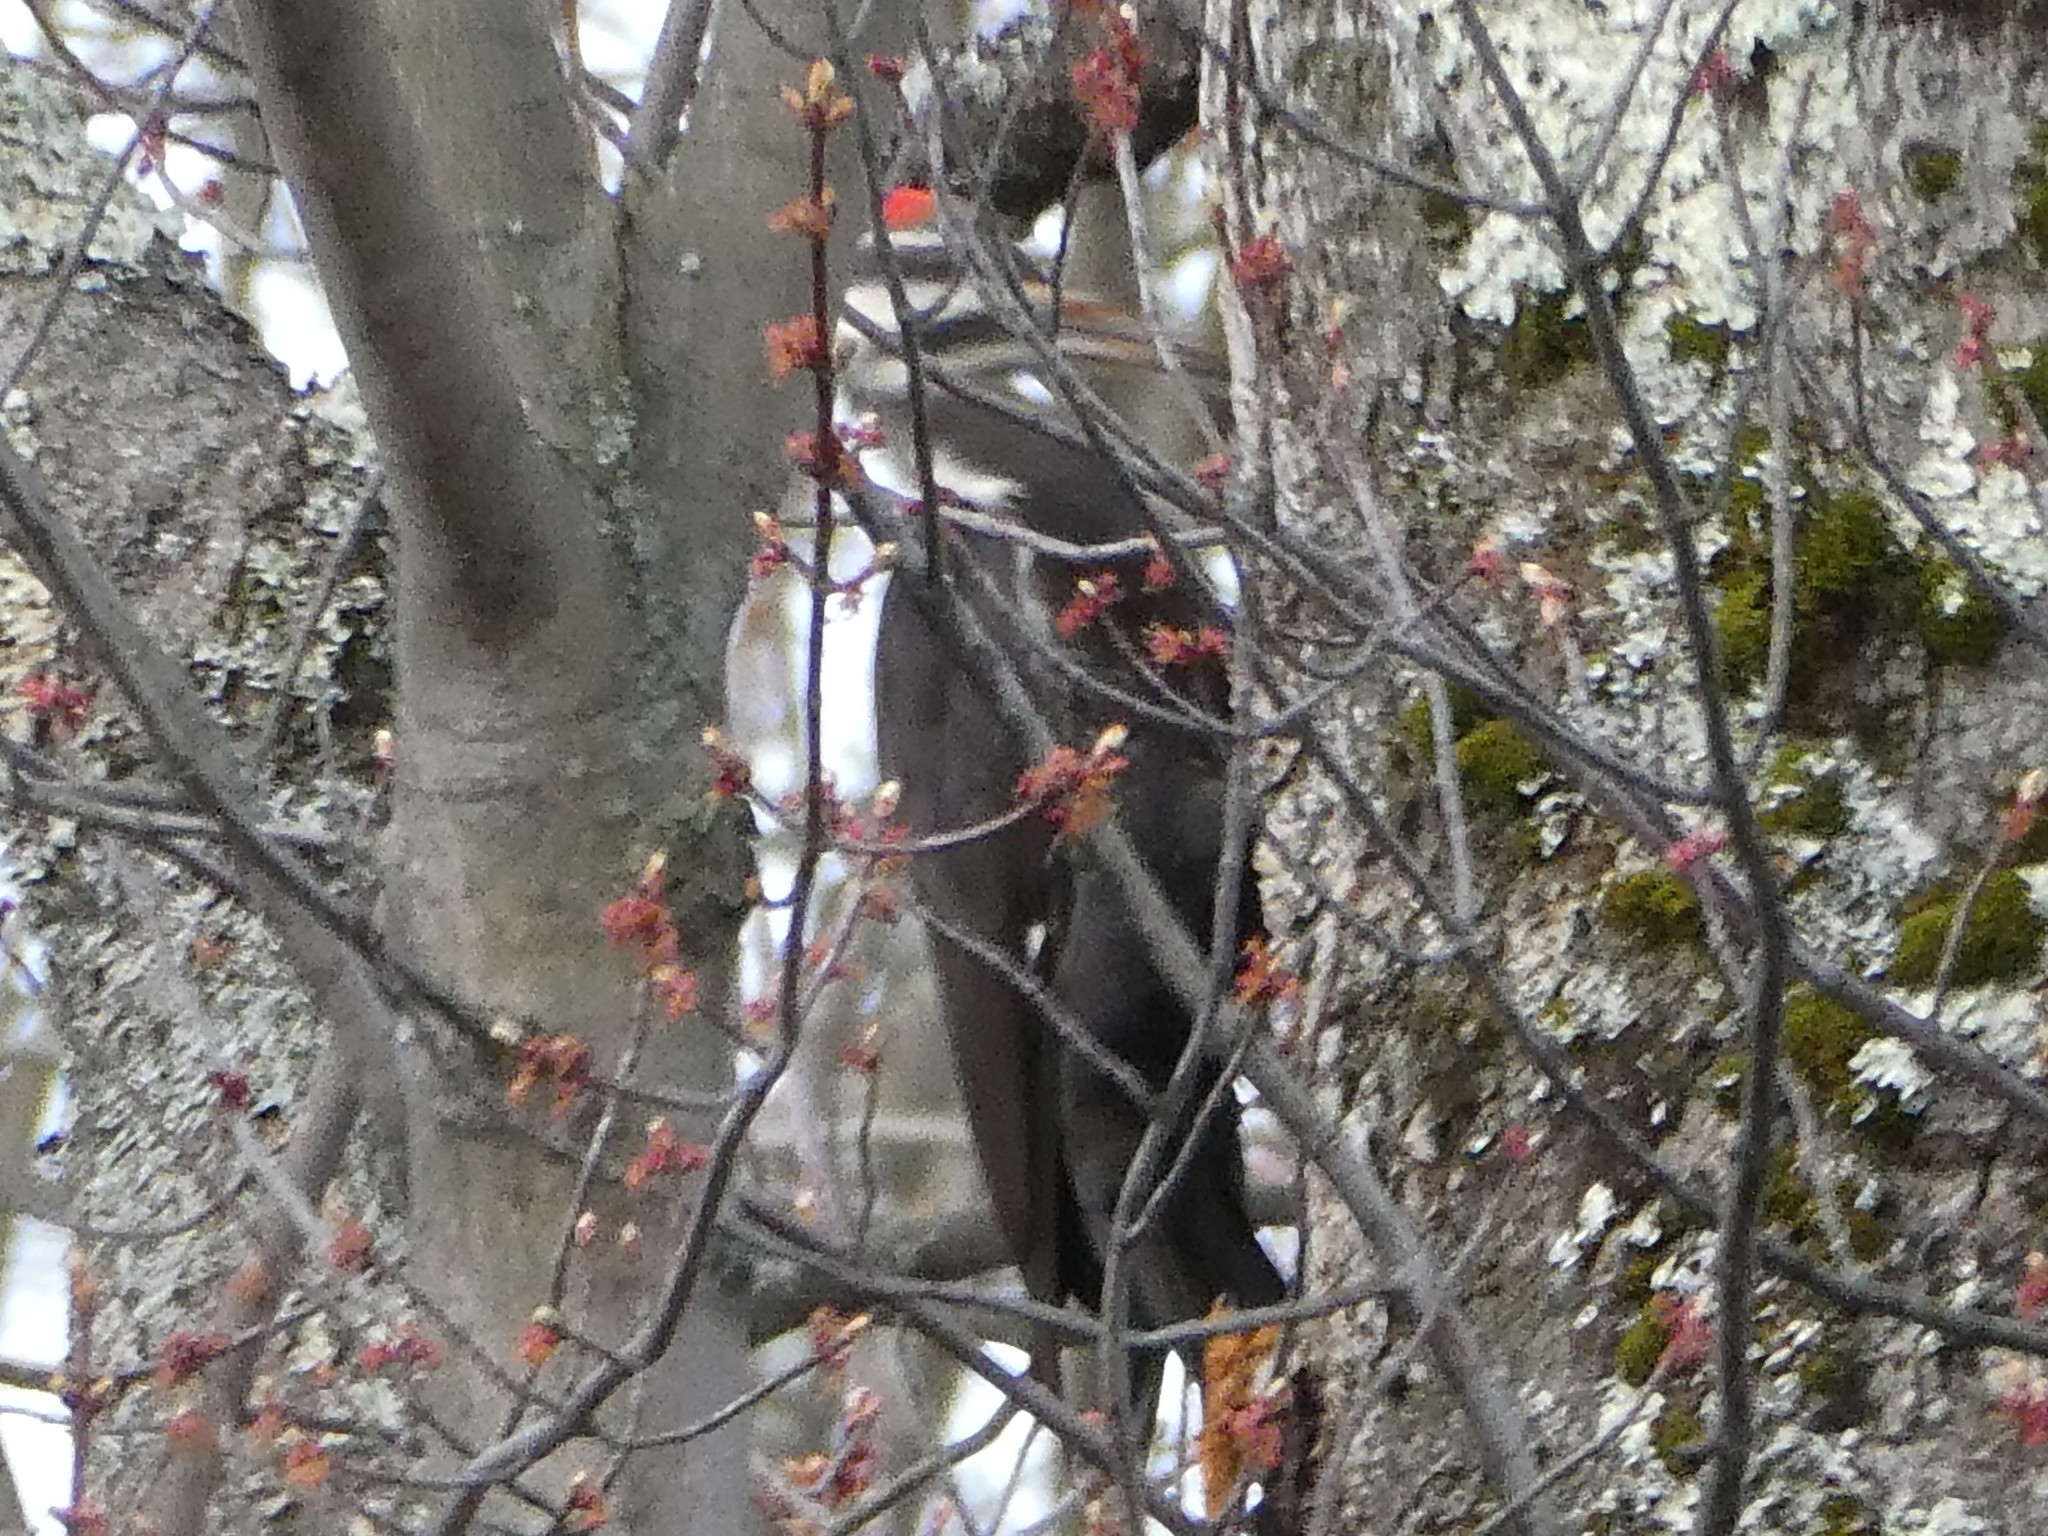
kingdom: Animalia
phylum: Chordata
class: Aves
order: Piciformes
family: Picidae
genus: Dryocopus
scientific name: Dryocopus pileatus
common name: Pileated woodpecker
